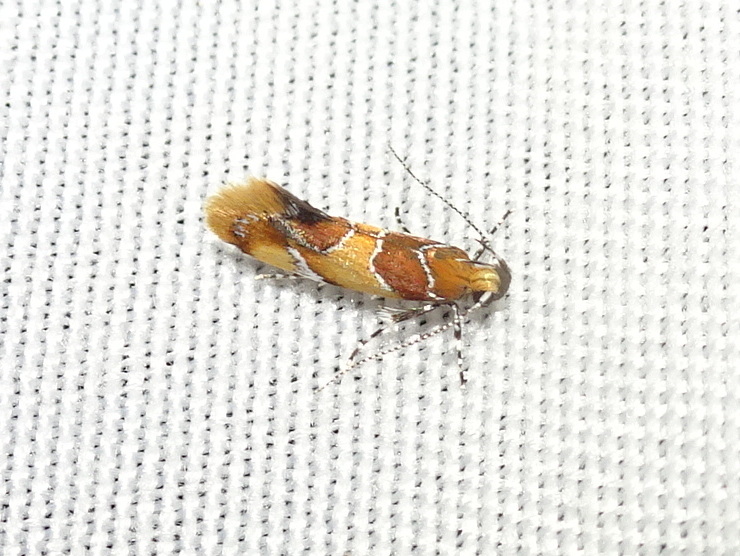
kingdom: Animalia
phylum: Arthropoda
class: Insecta
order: Lepidoptera
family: Oecophoridae
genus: Callima
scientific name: Callima argenticinctella
